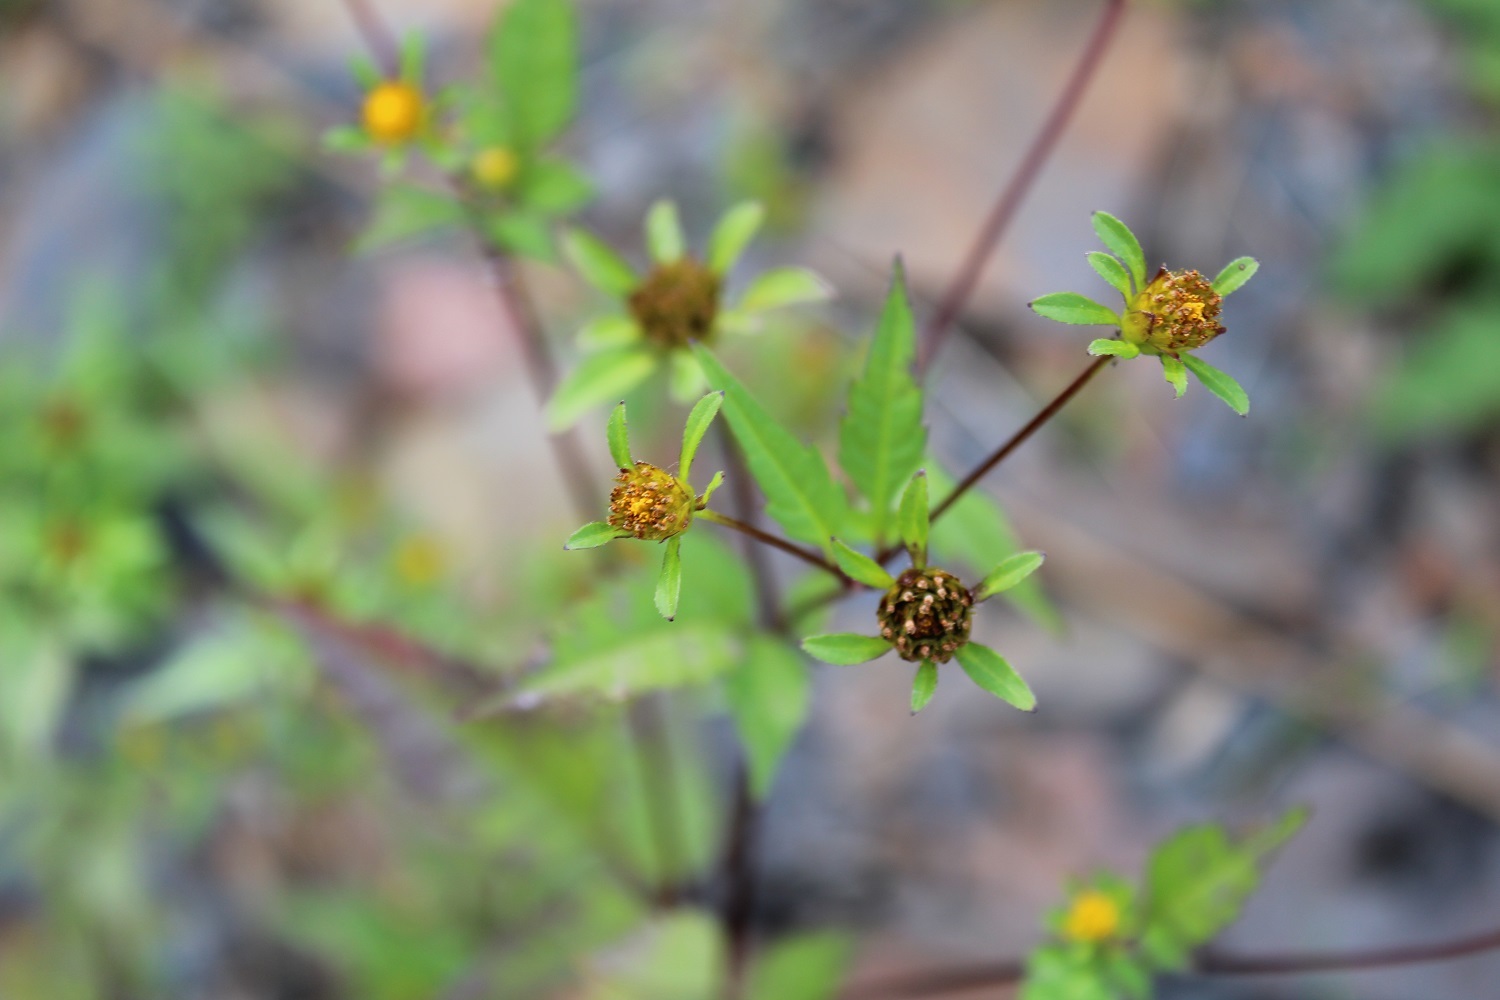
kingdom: Plantae
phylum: Tracheophyta
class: Magnoliopsida
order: Asterales
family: Asteraceae
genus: Bidens
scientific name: Bidens frondosa
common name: Beggarticks
